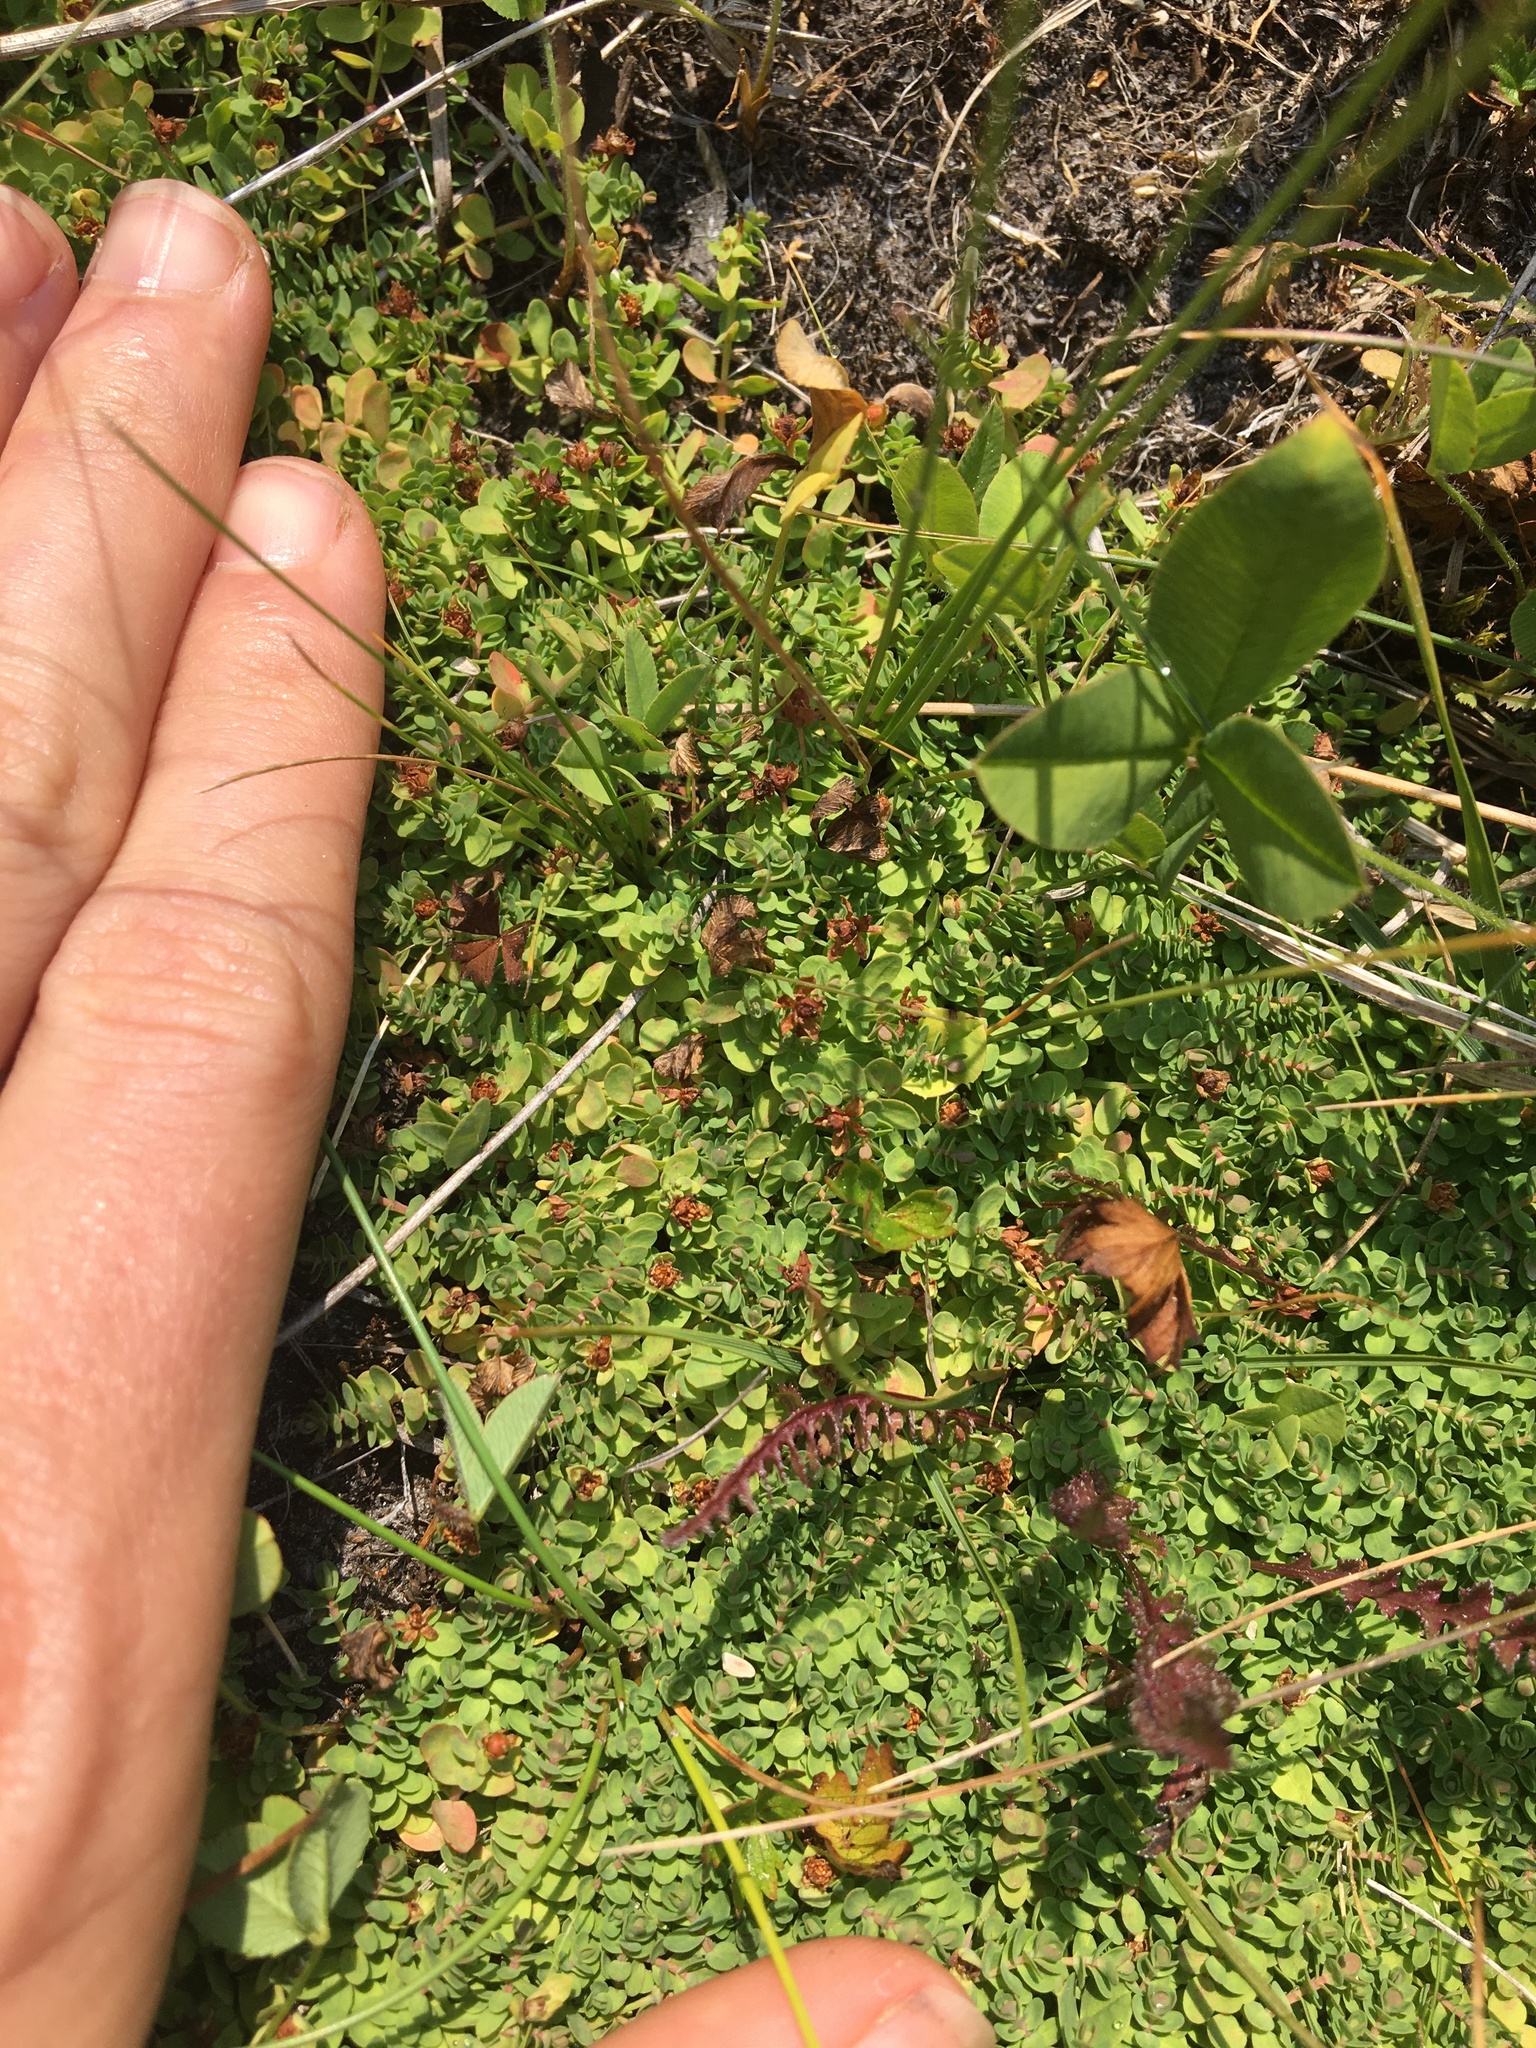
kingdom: Plantae
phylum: Tracheophyta
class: Magnoliopsida
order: Malpighiales
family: Hypericaceae
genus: Hypericum
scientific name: Hypericum anagalloides
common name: Bog st. john's-wort
